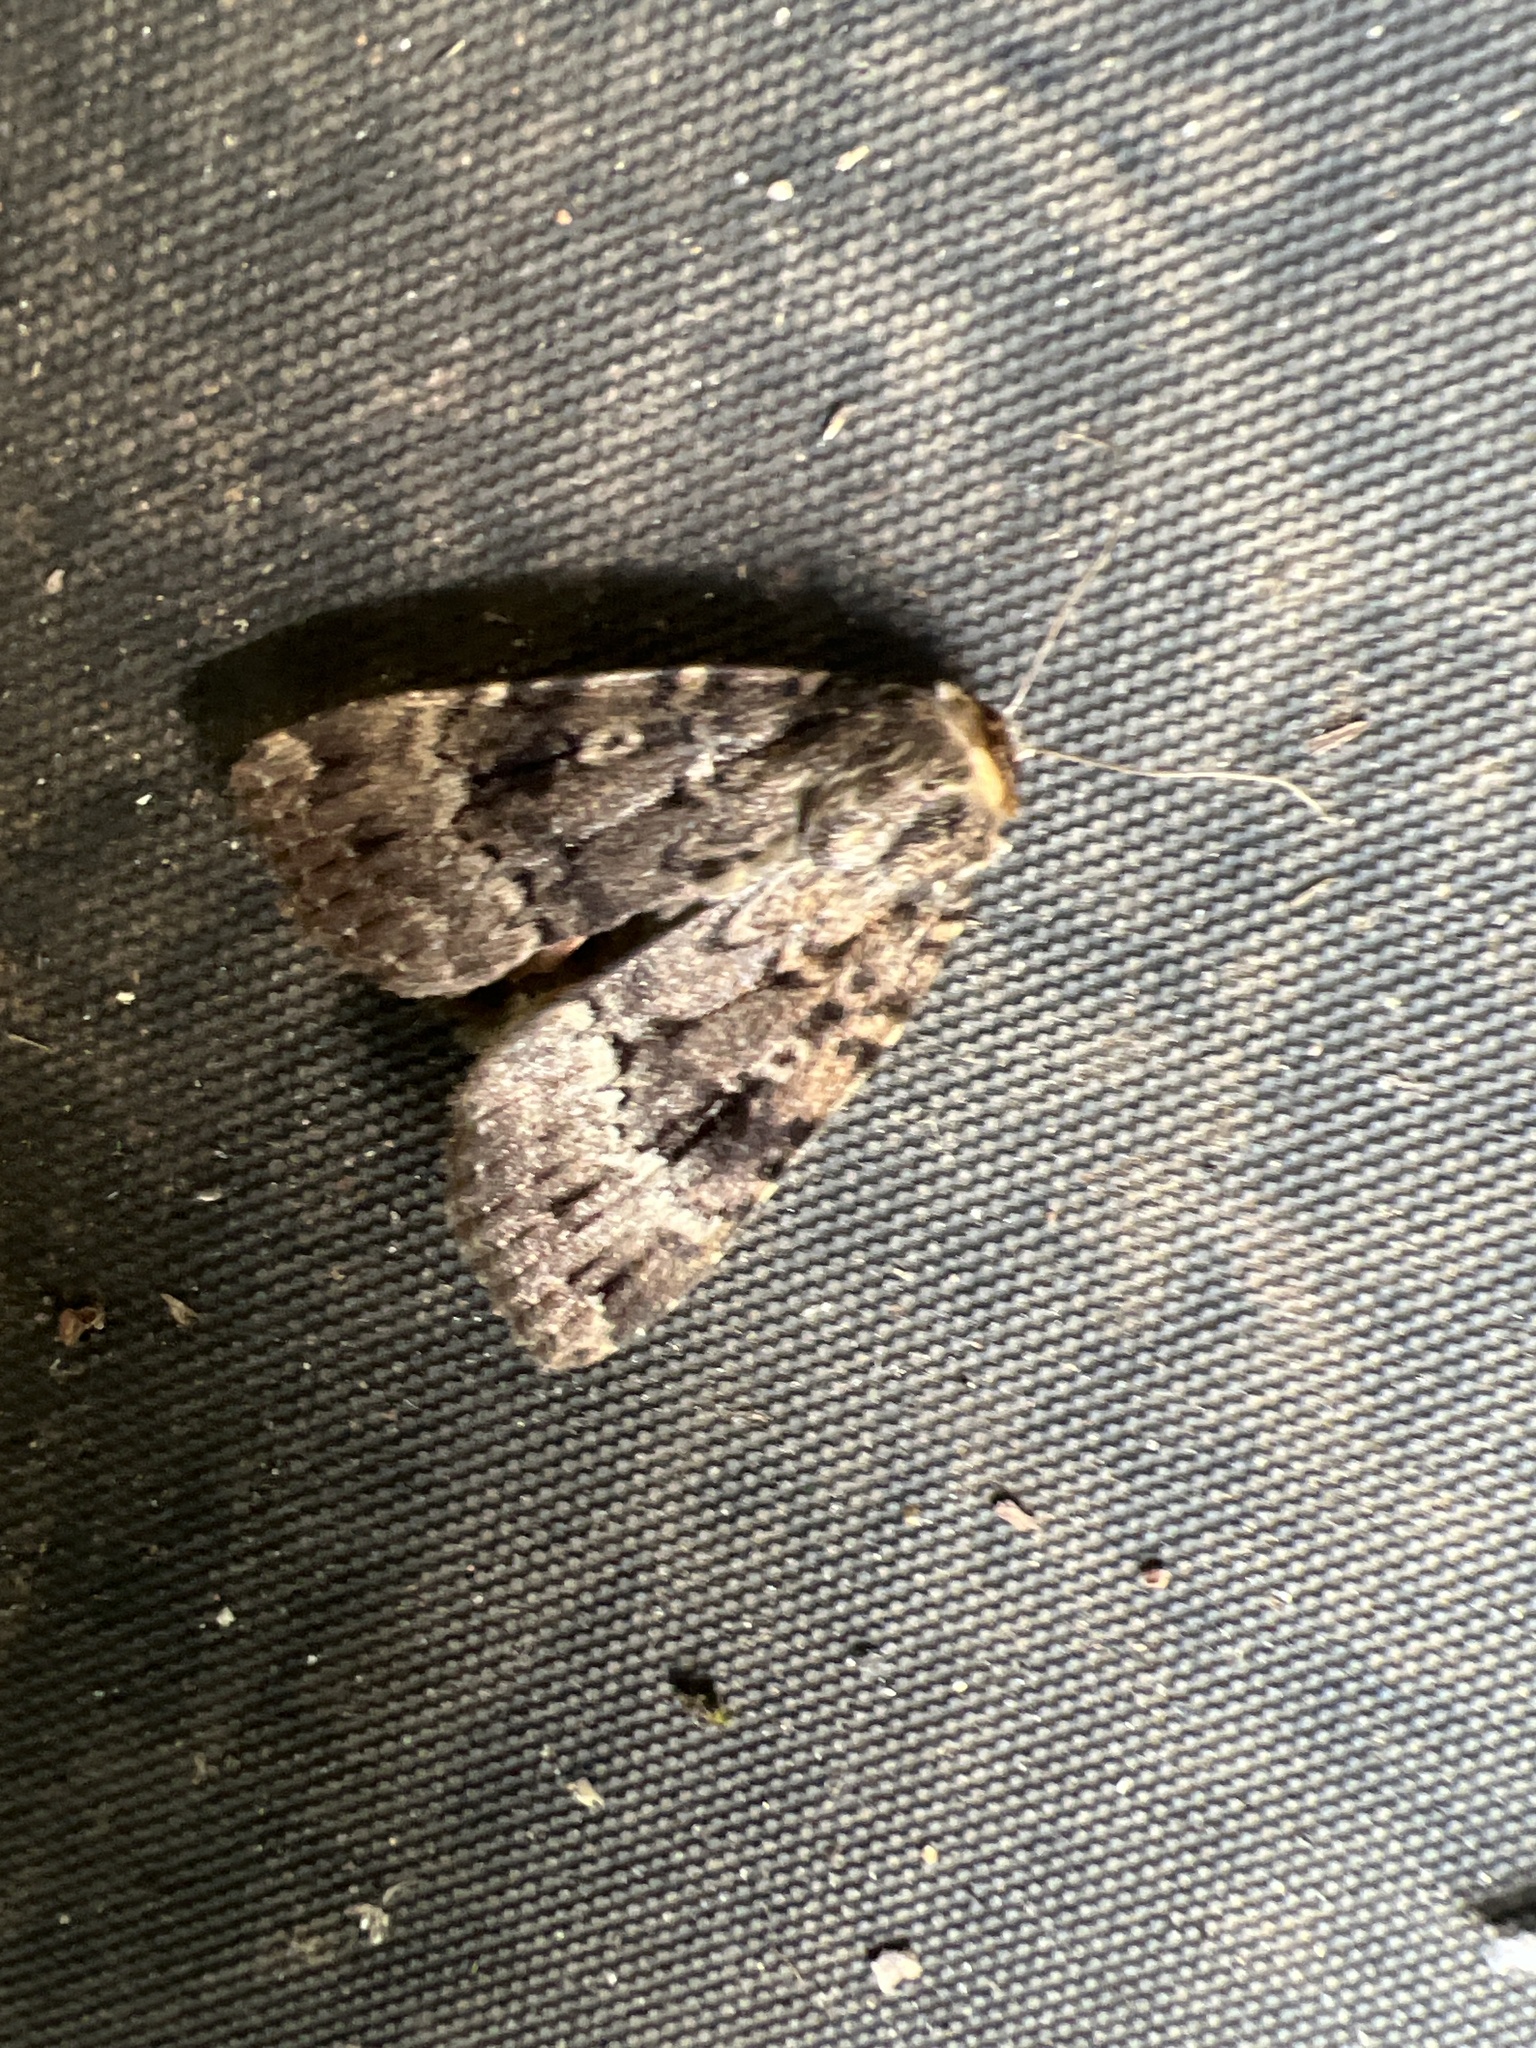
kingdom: Animalia
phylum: Arthropoda
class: Insecta
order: Lepidoptera
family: Noctuidae
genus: Amphipyra
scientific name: Amphipyra
